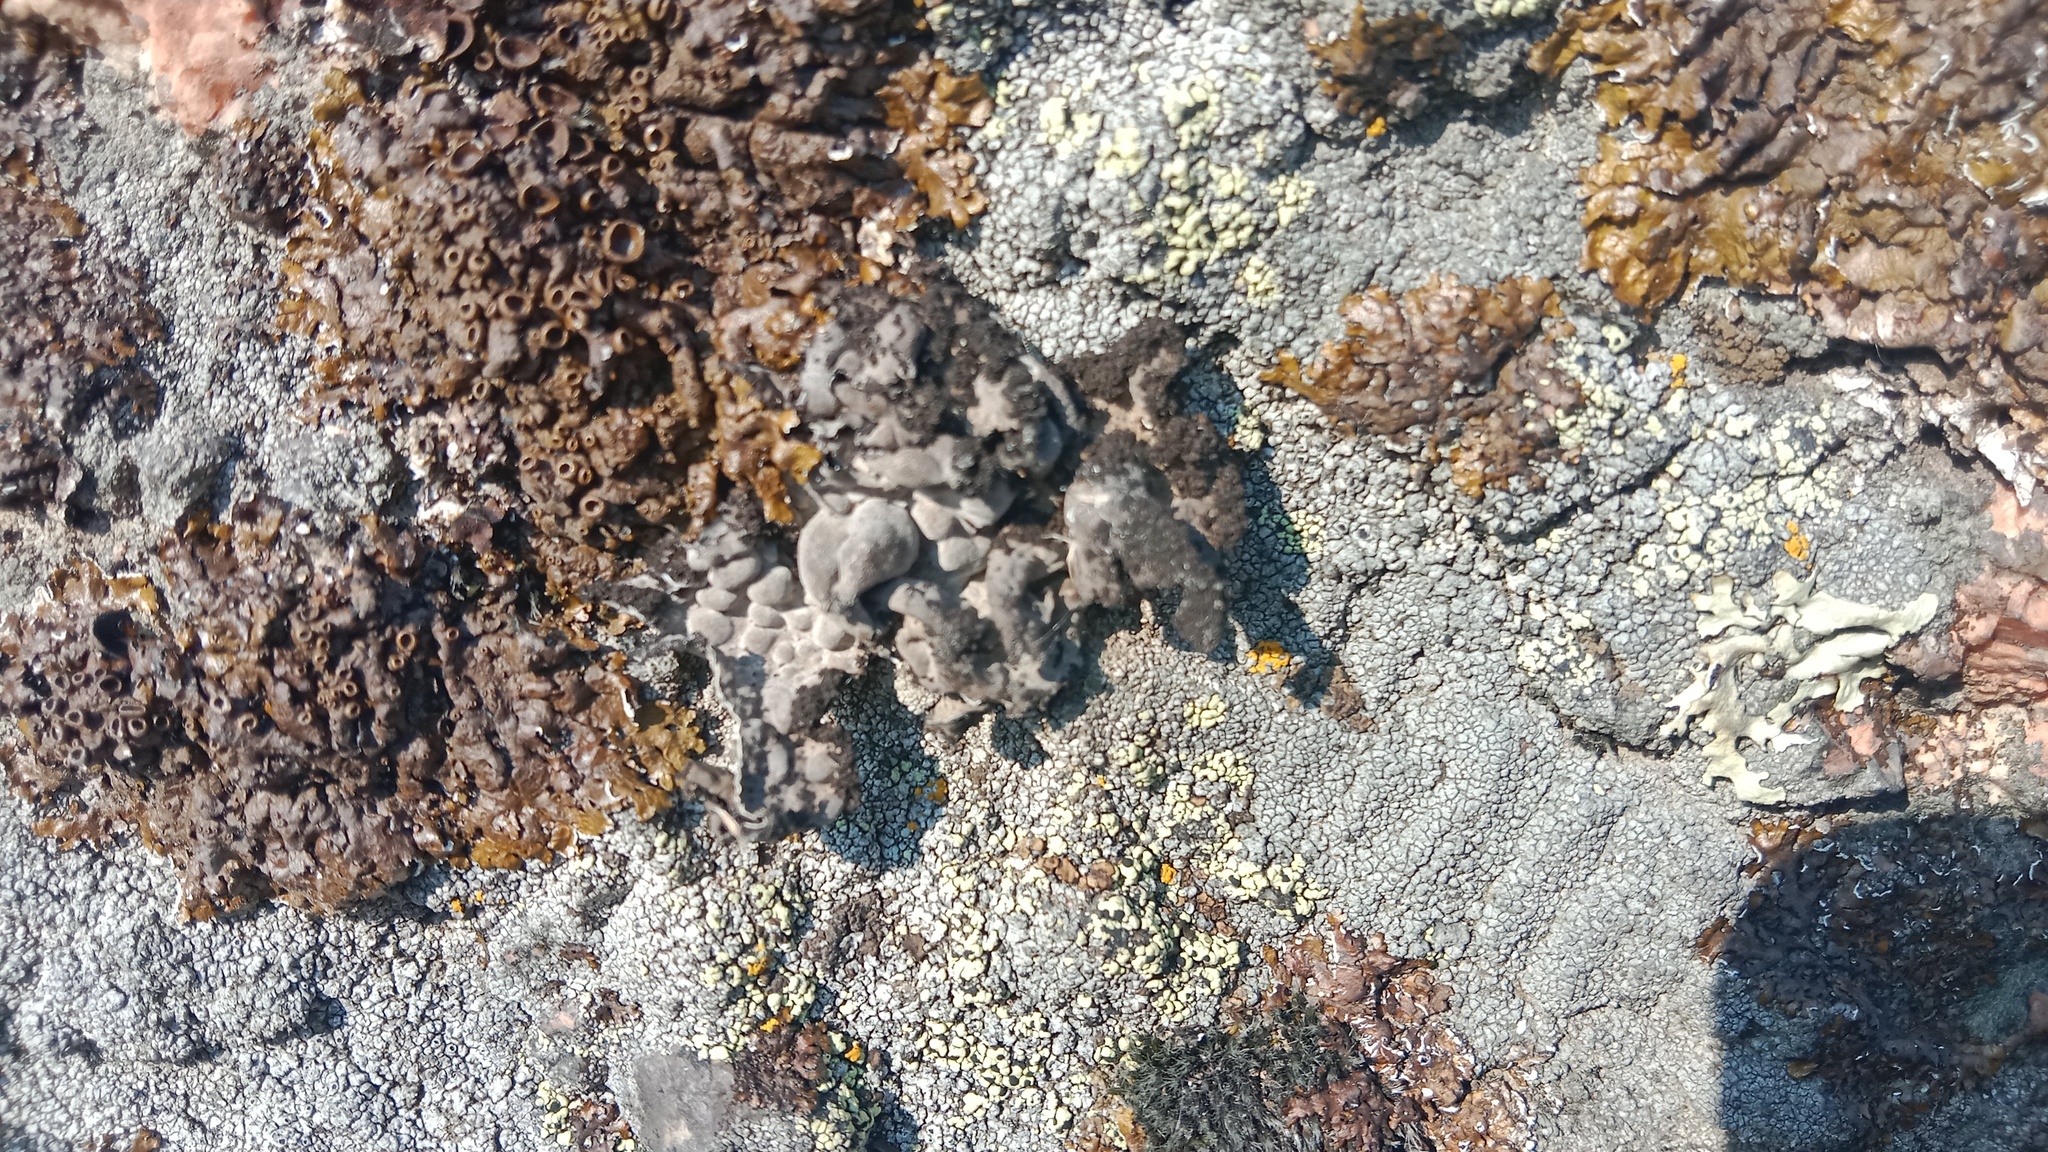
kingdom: Fungi
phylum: Ascomycota
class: Lecanoromycetes
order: Umbilicariales
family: Umbilicariaceae
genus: Lasallia
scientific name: Lasallia pustulata
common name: Blistered toadskin lichen
